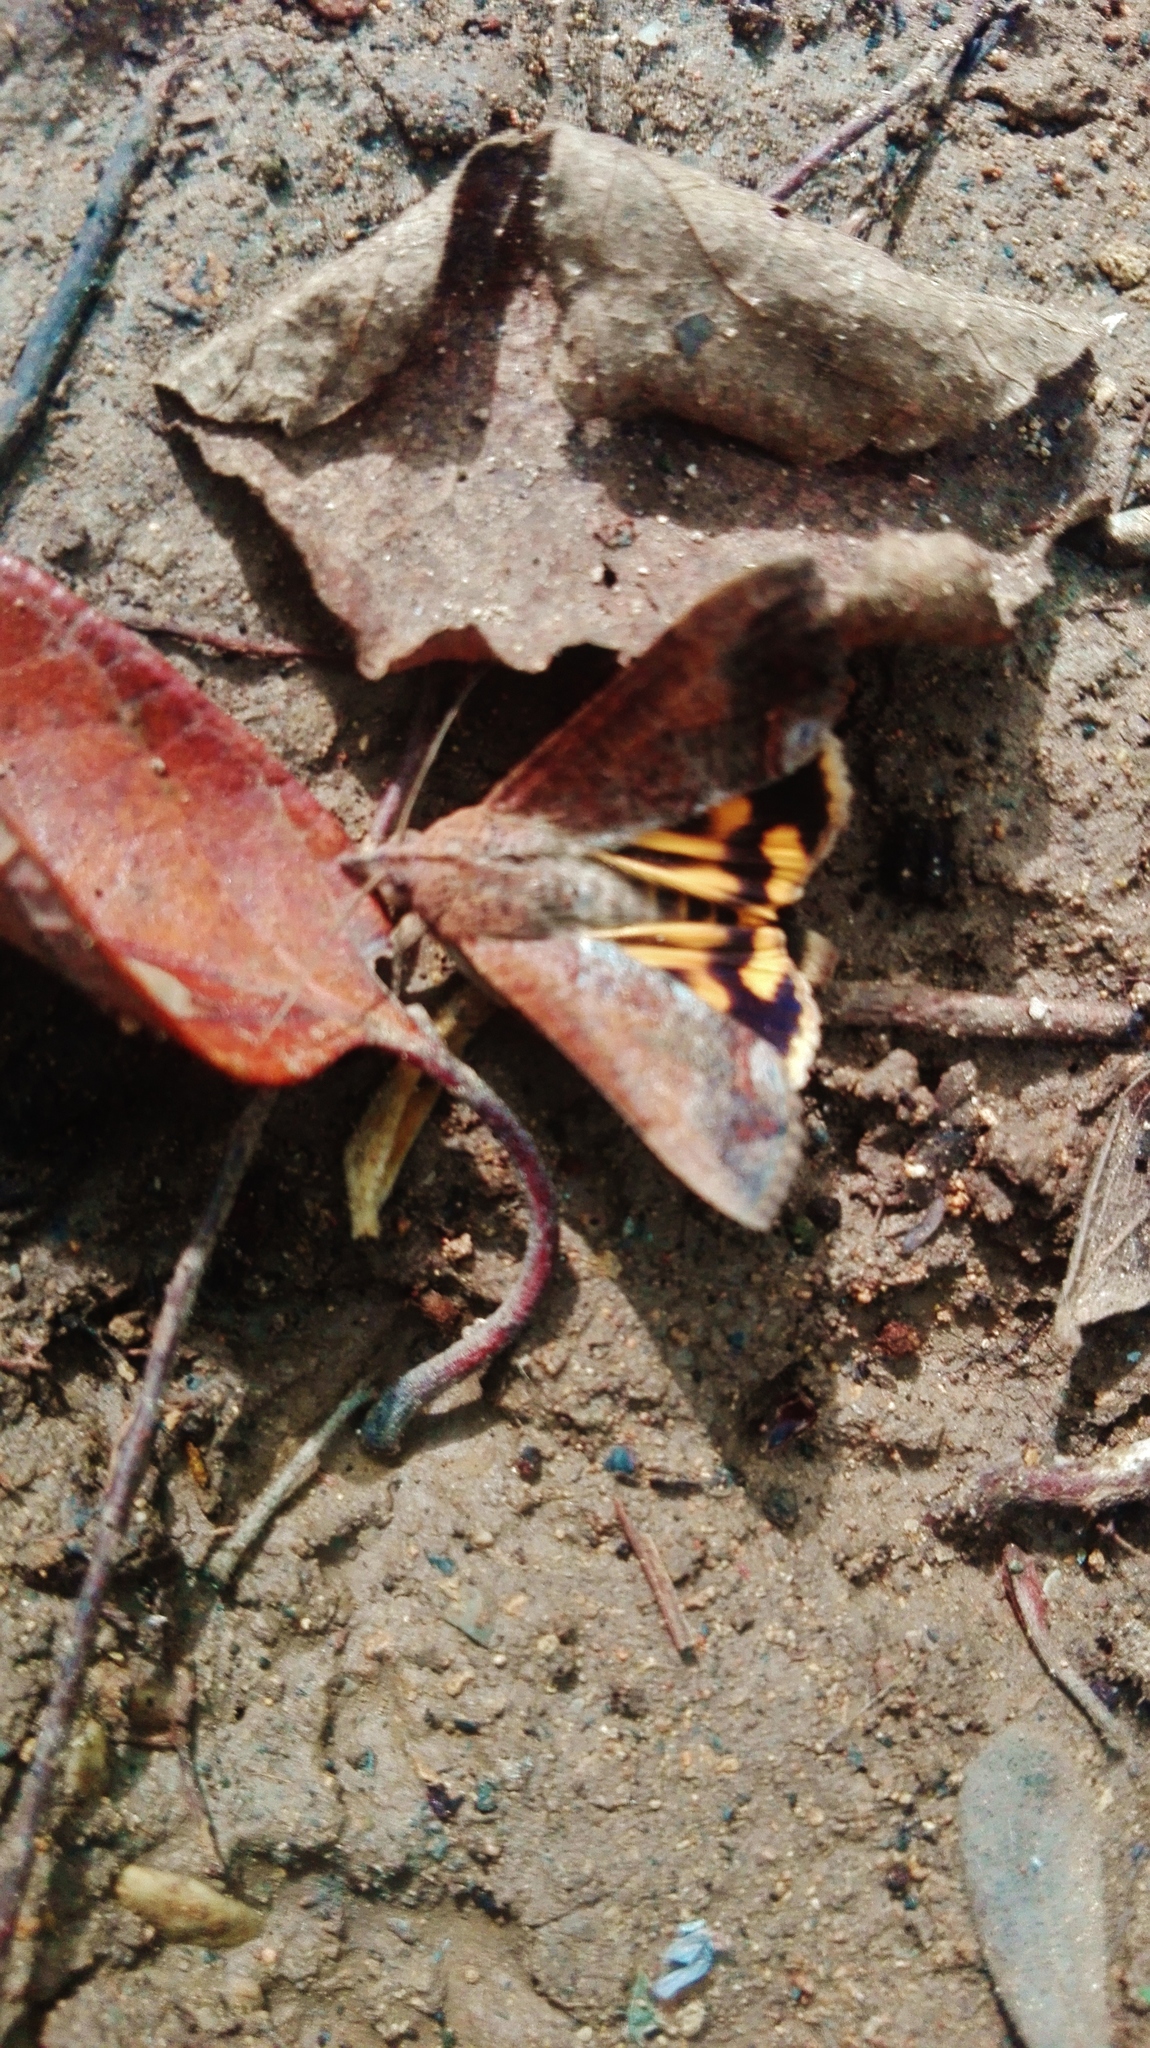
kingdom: Animalia
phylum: Arthropoda
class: Insecta
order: Lepidoptera
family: Erebidae
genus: Hypocala
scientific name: Hypocala andremona
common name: Hypocala moth
